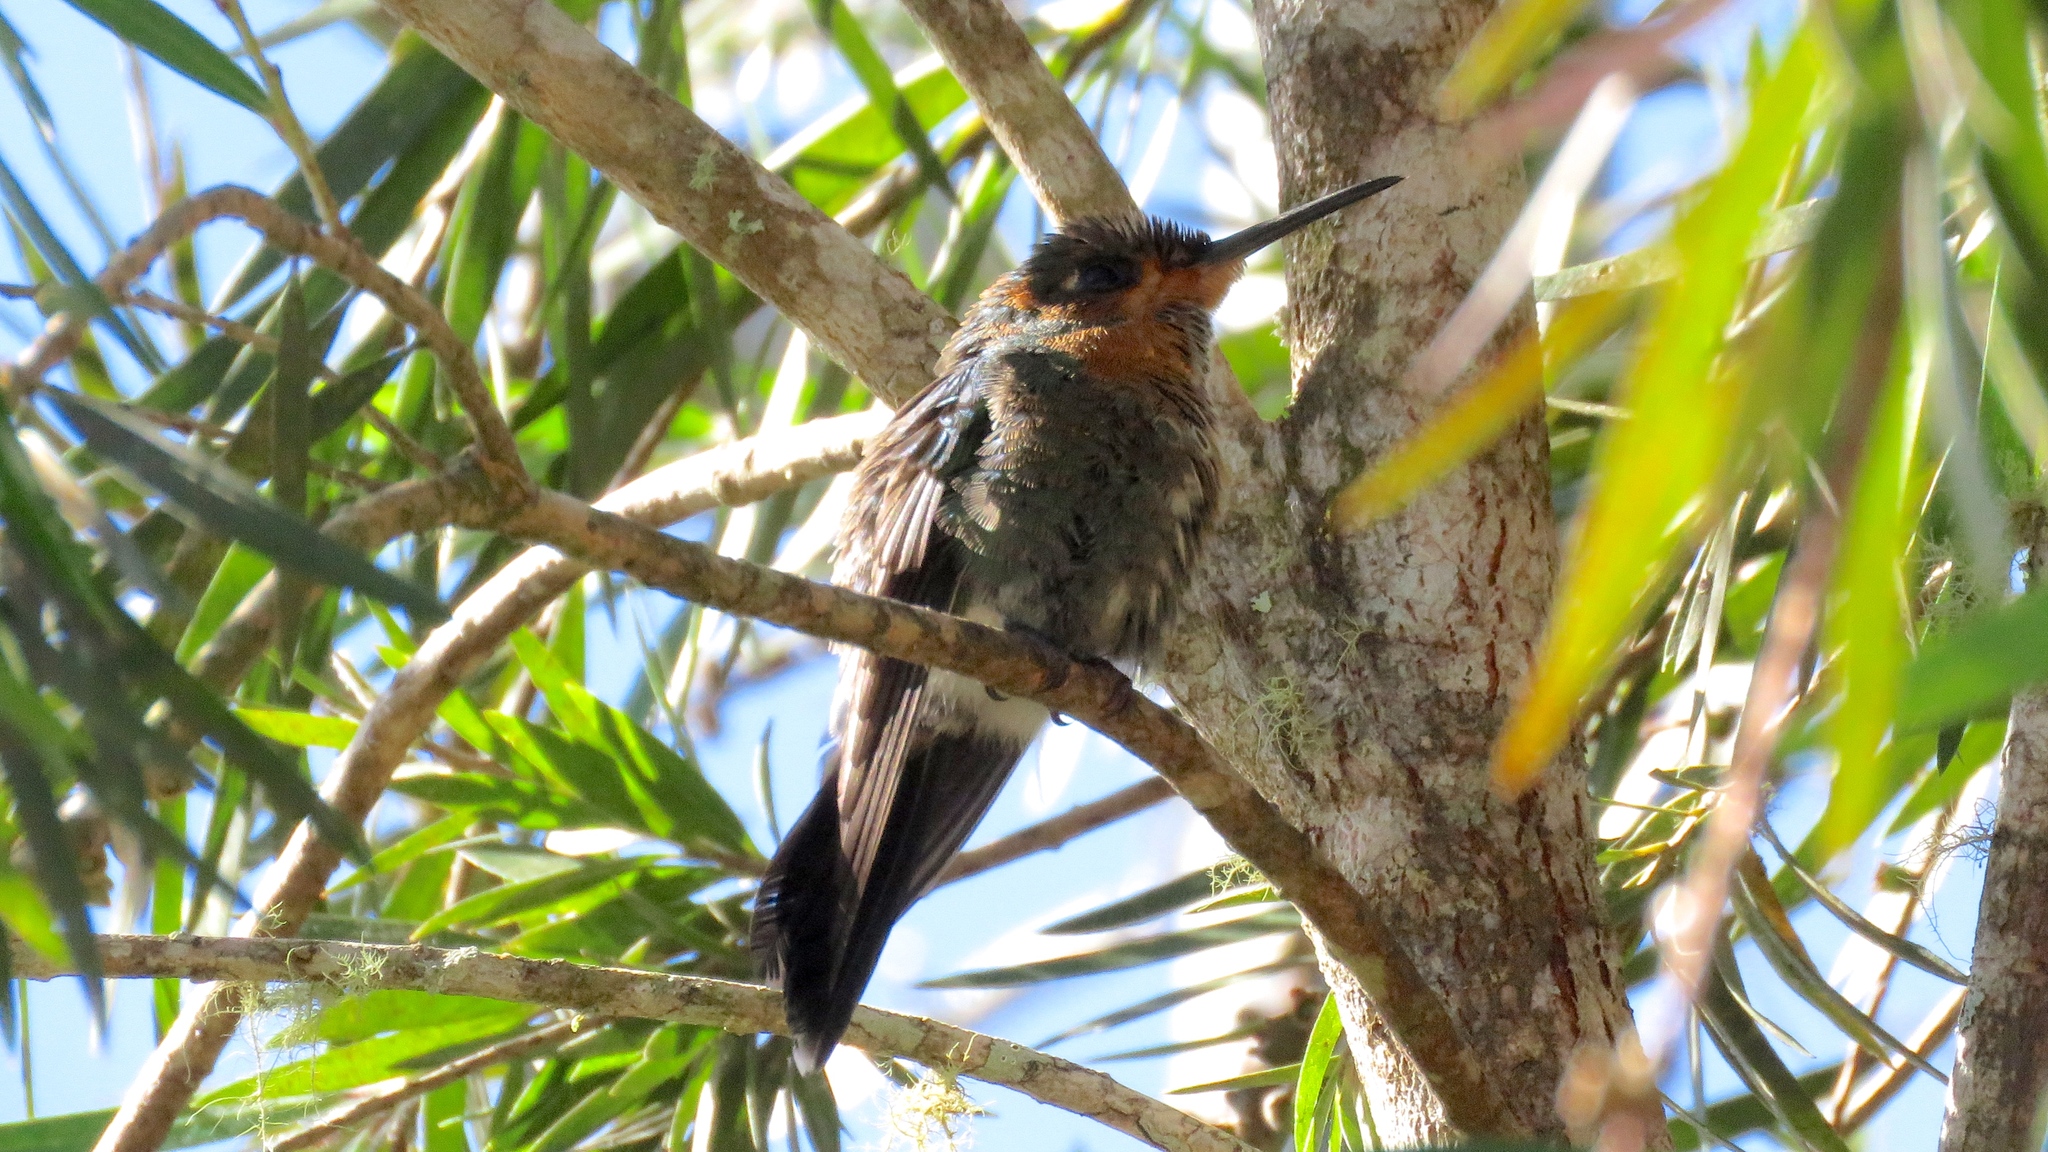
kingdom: Animalia
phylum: Chordata
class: Aves
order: Apodiformes
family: Trochilidae
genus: Heliodoxa
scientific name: Heliodoxa jacula
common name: Green-crowned brilliant
